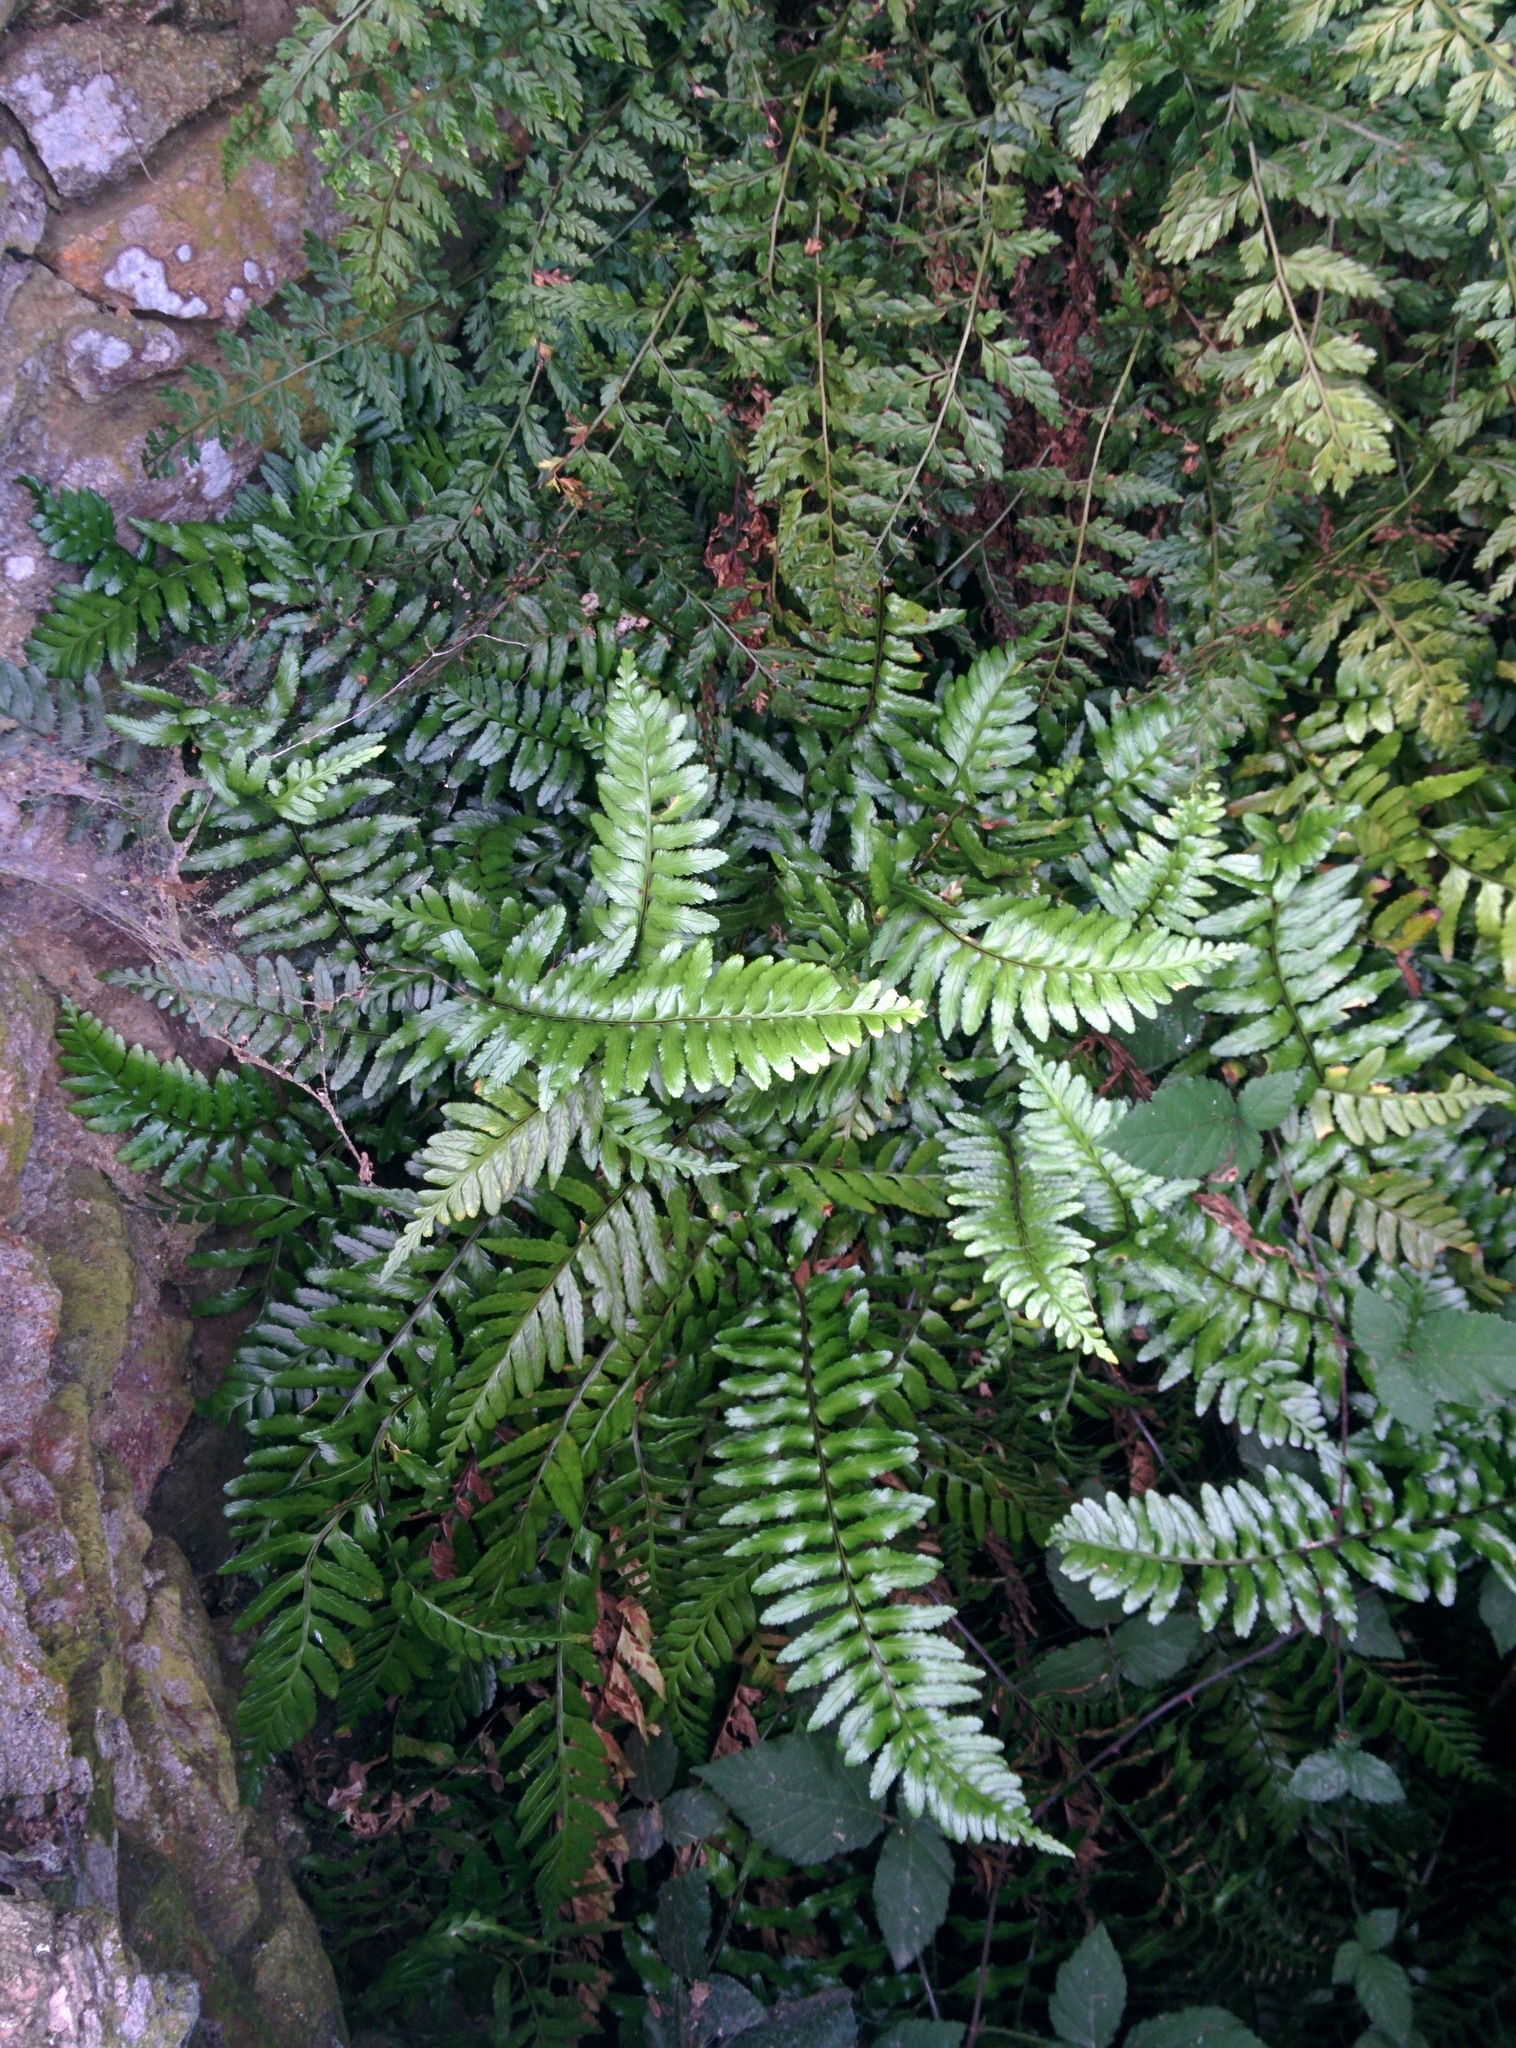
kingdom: Plantae
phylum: Tracheophyta
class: Polypodiopsida
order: Polypodiales
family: Aspleniaceae
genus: Asplenium
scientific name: Asplenium marinum
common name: Sea spleenwort
